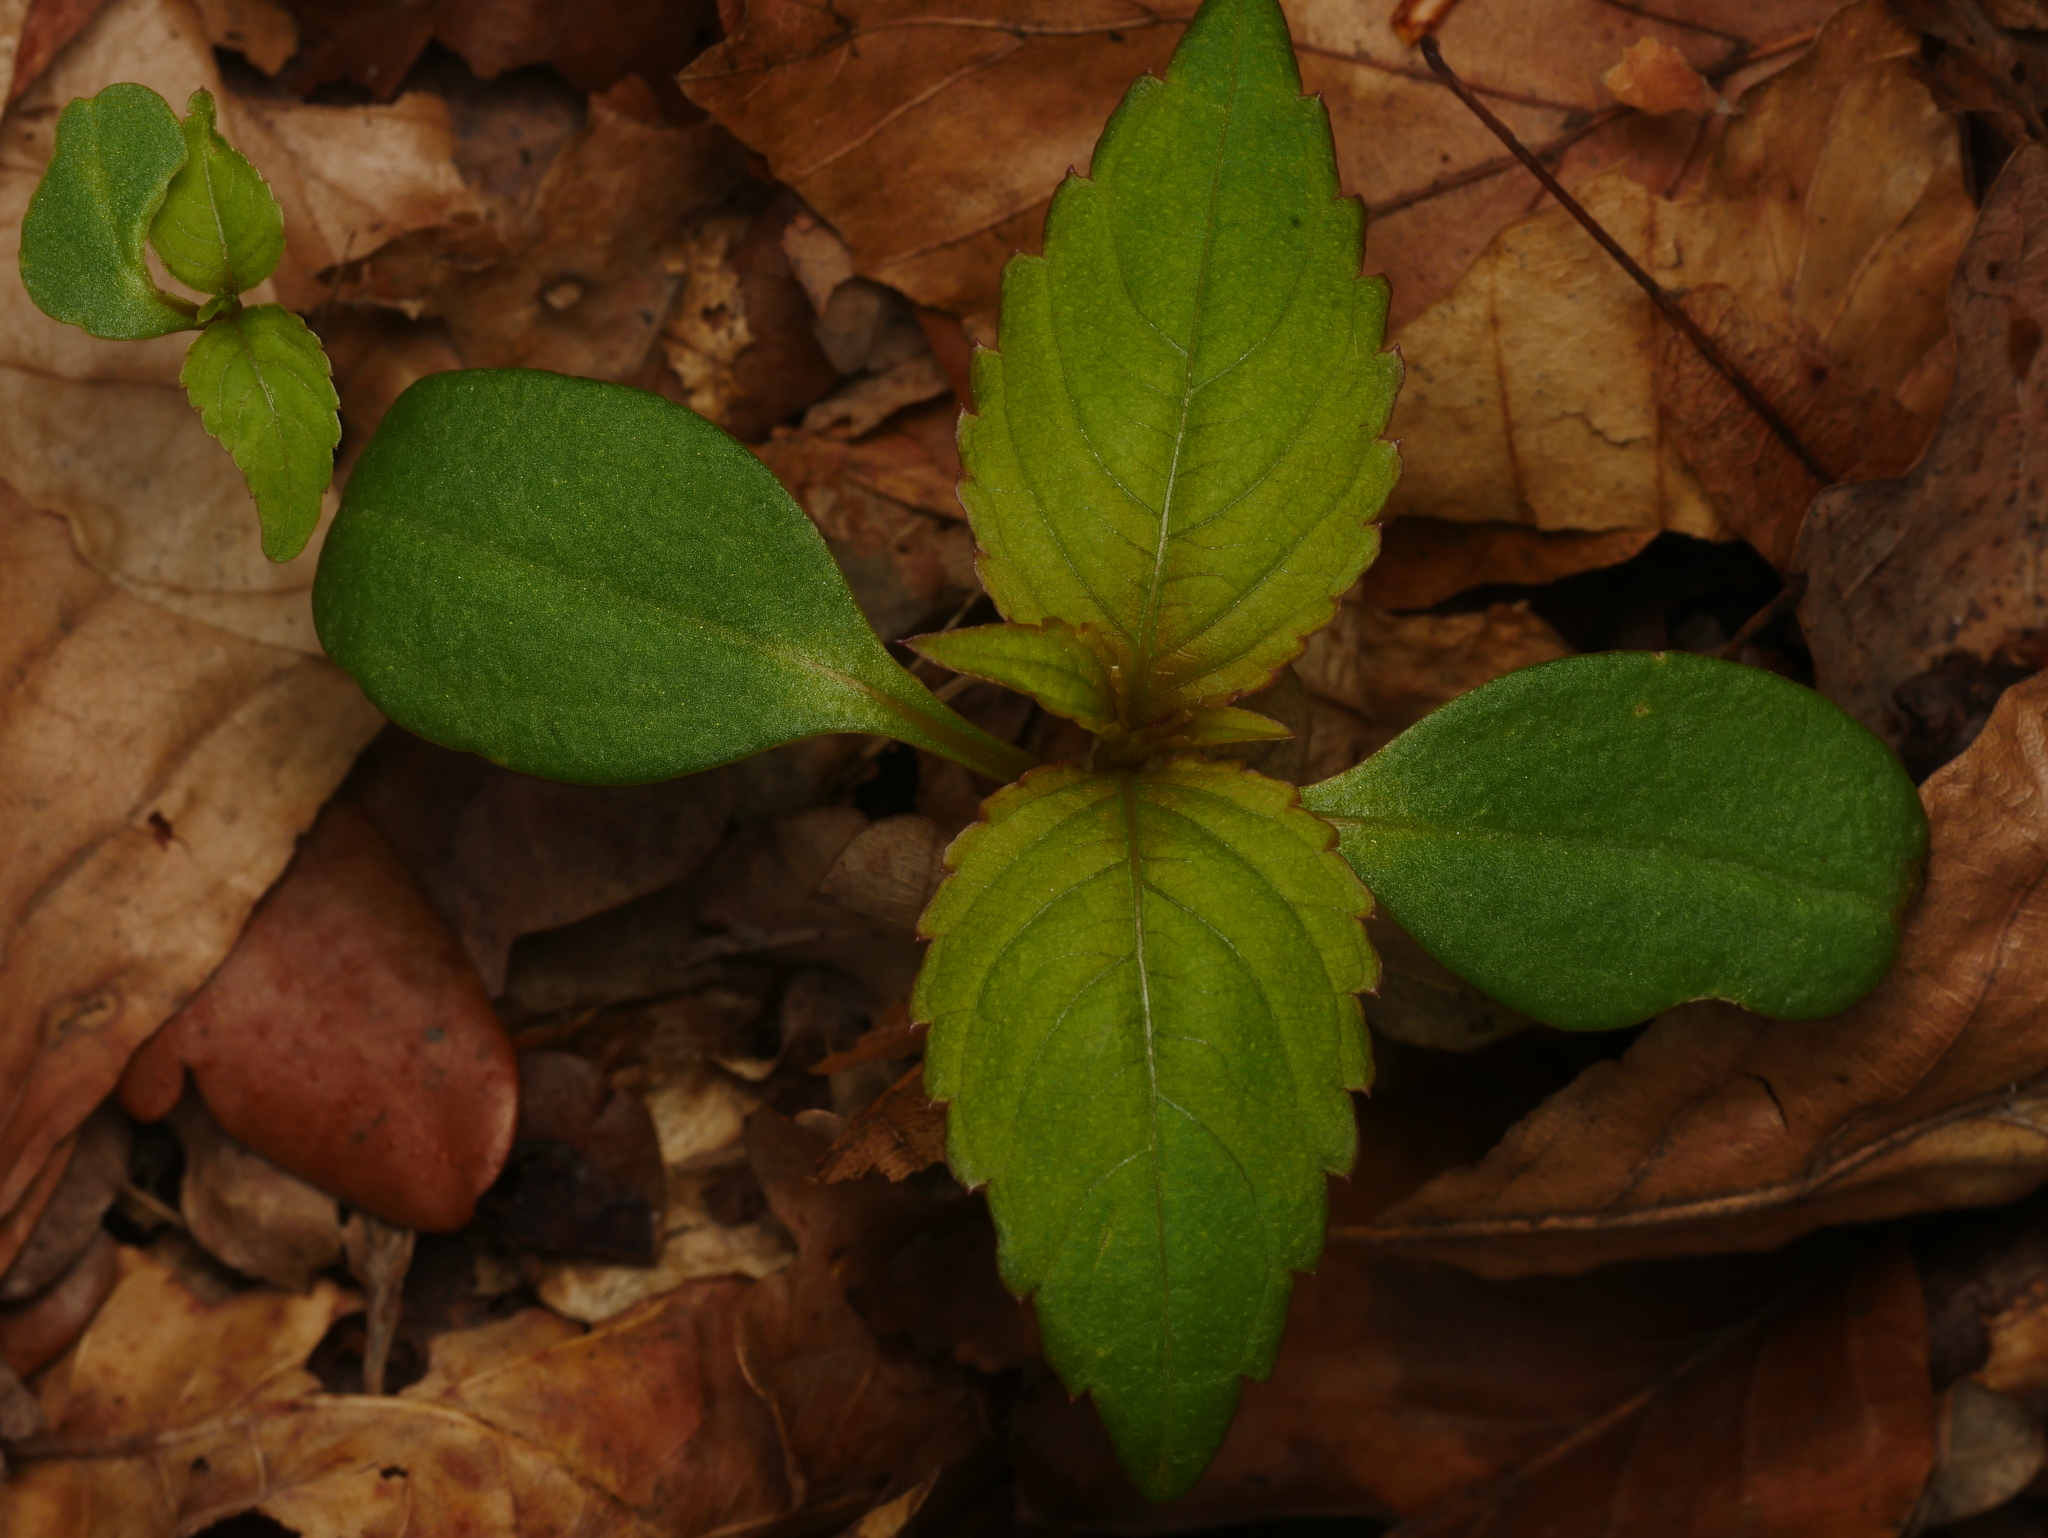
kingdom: Plantae
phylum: Tracheophyta
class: Magnoliopsida
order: Ericales
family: Balsaminaceae
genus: Impatiens
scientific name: Impatiens parviflora
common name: Small balsam
